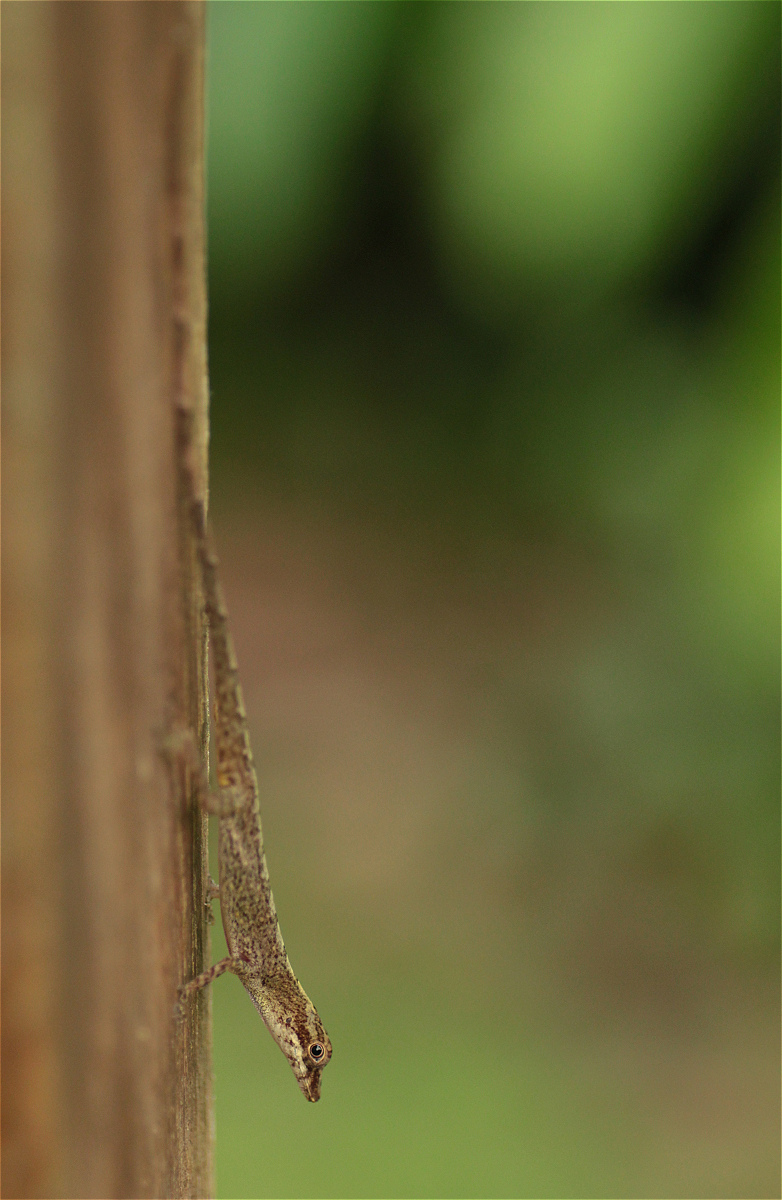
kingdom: Animalia
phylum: Chordata
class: Squamata
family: Dactyloidae
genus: Anolis
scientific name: Anolis fuscoauratus
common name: Brown-eared anole
